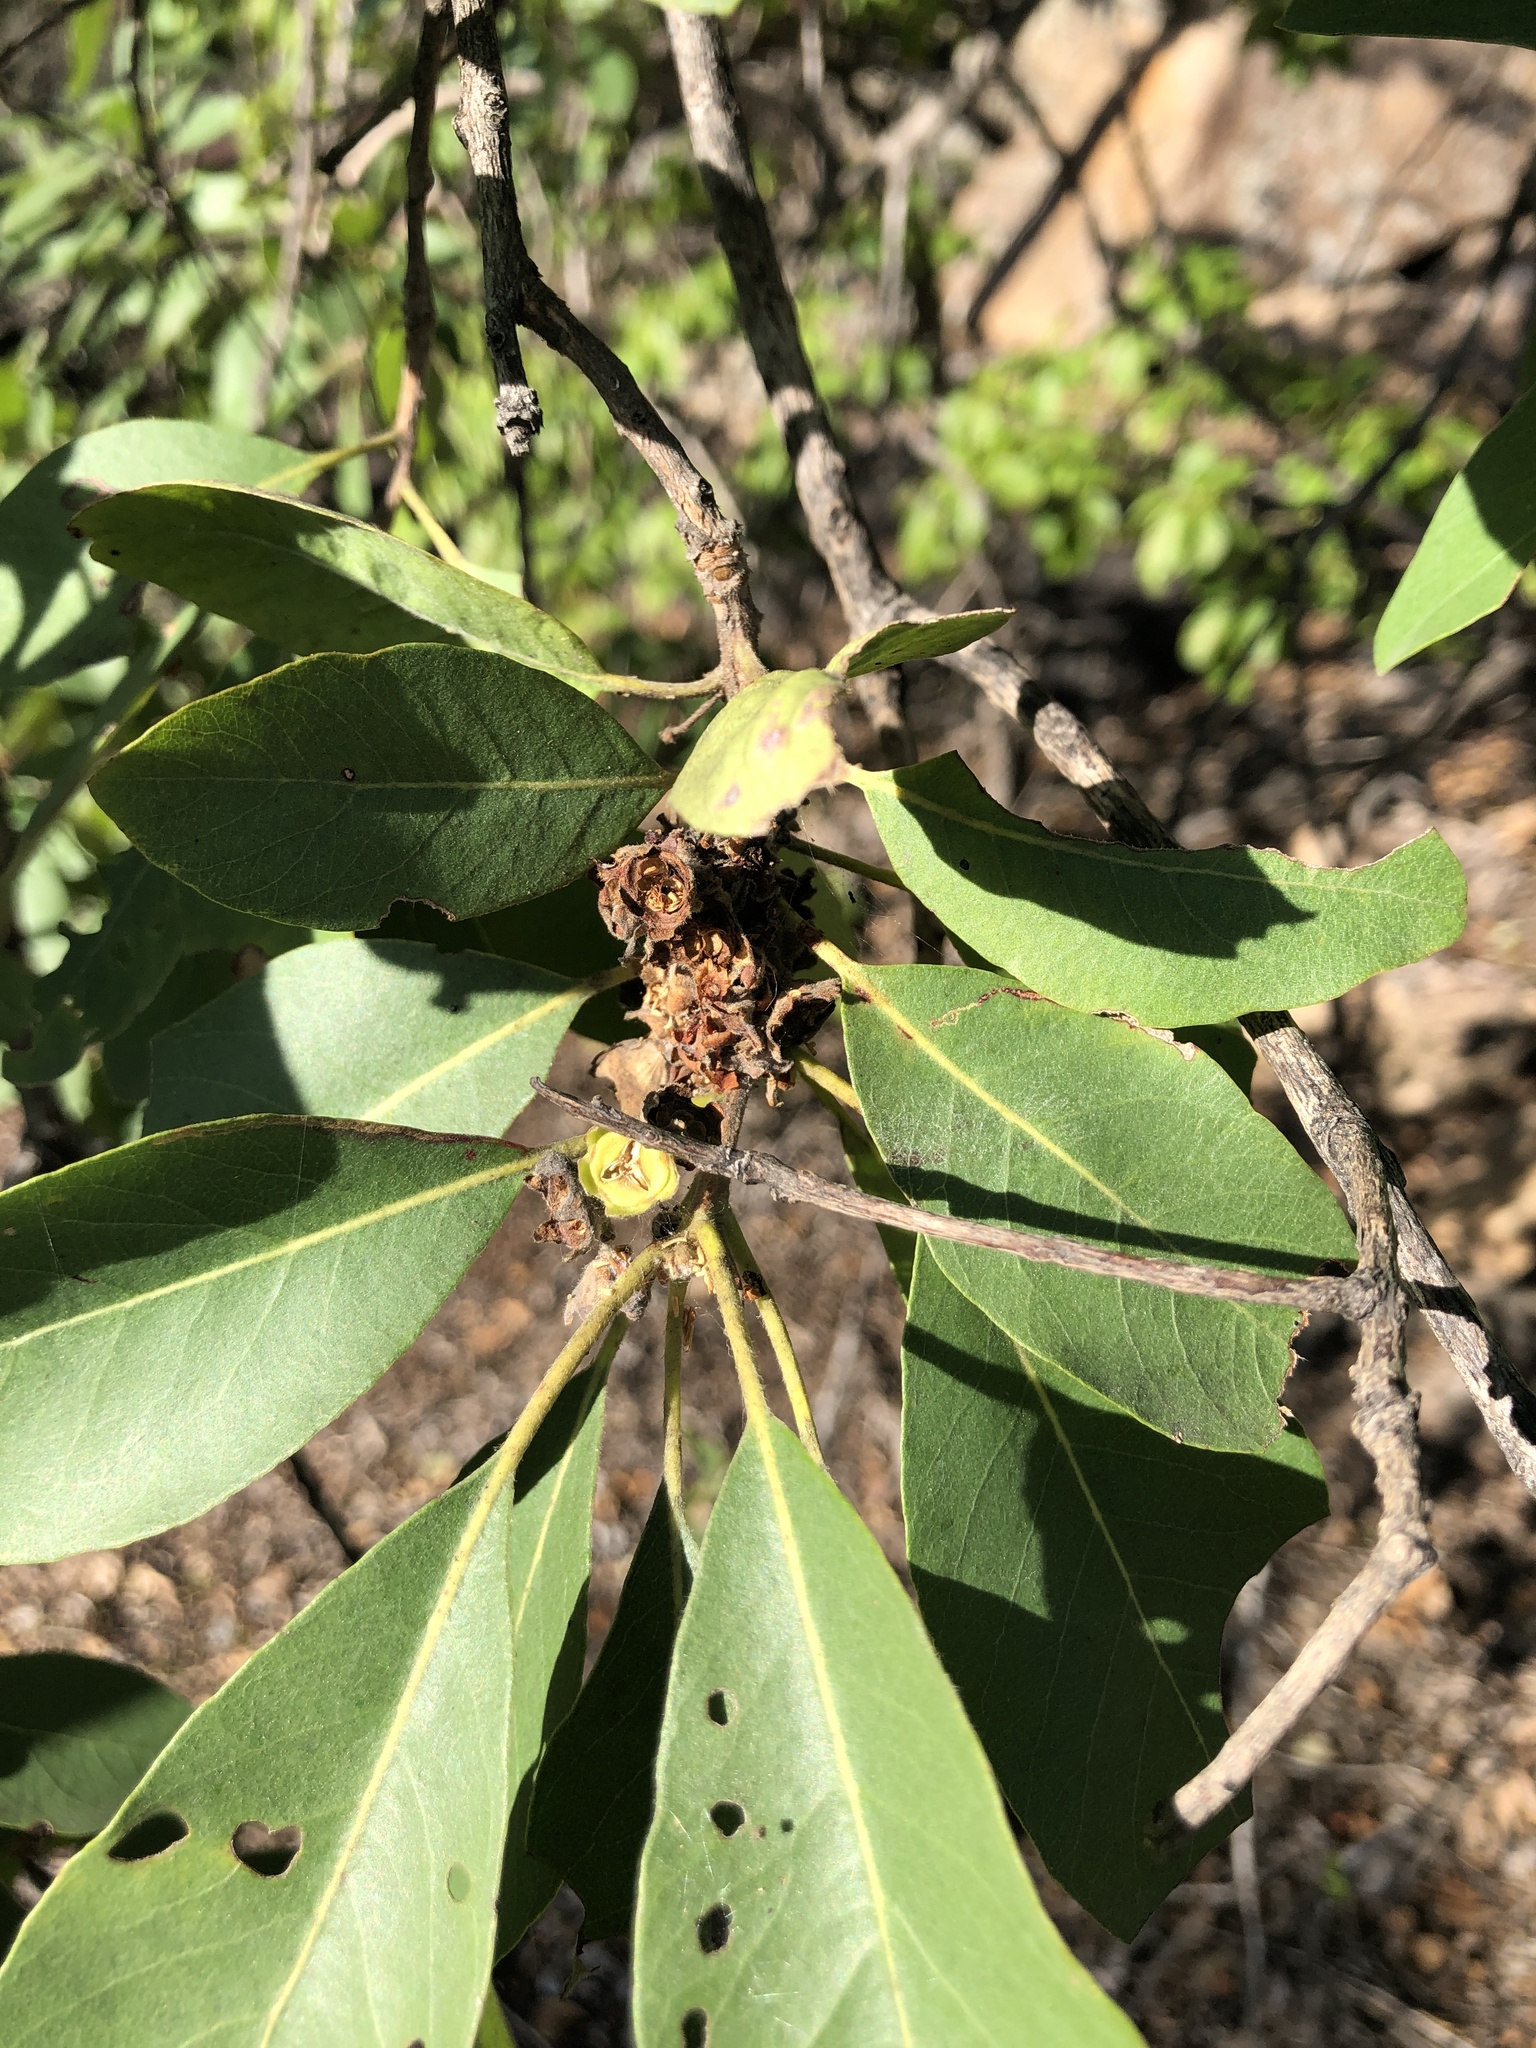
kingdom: Plantae
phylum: Tracheophyta
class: Magnoliopsida
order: Myrtales
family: Myrtaceae
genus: Lophostemon
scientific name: Lophostemon grandiflorus
